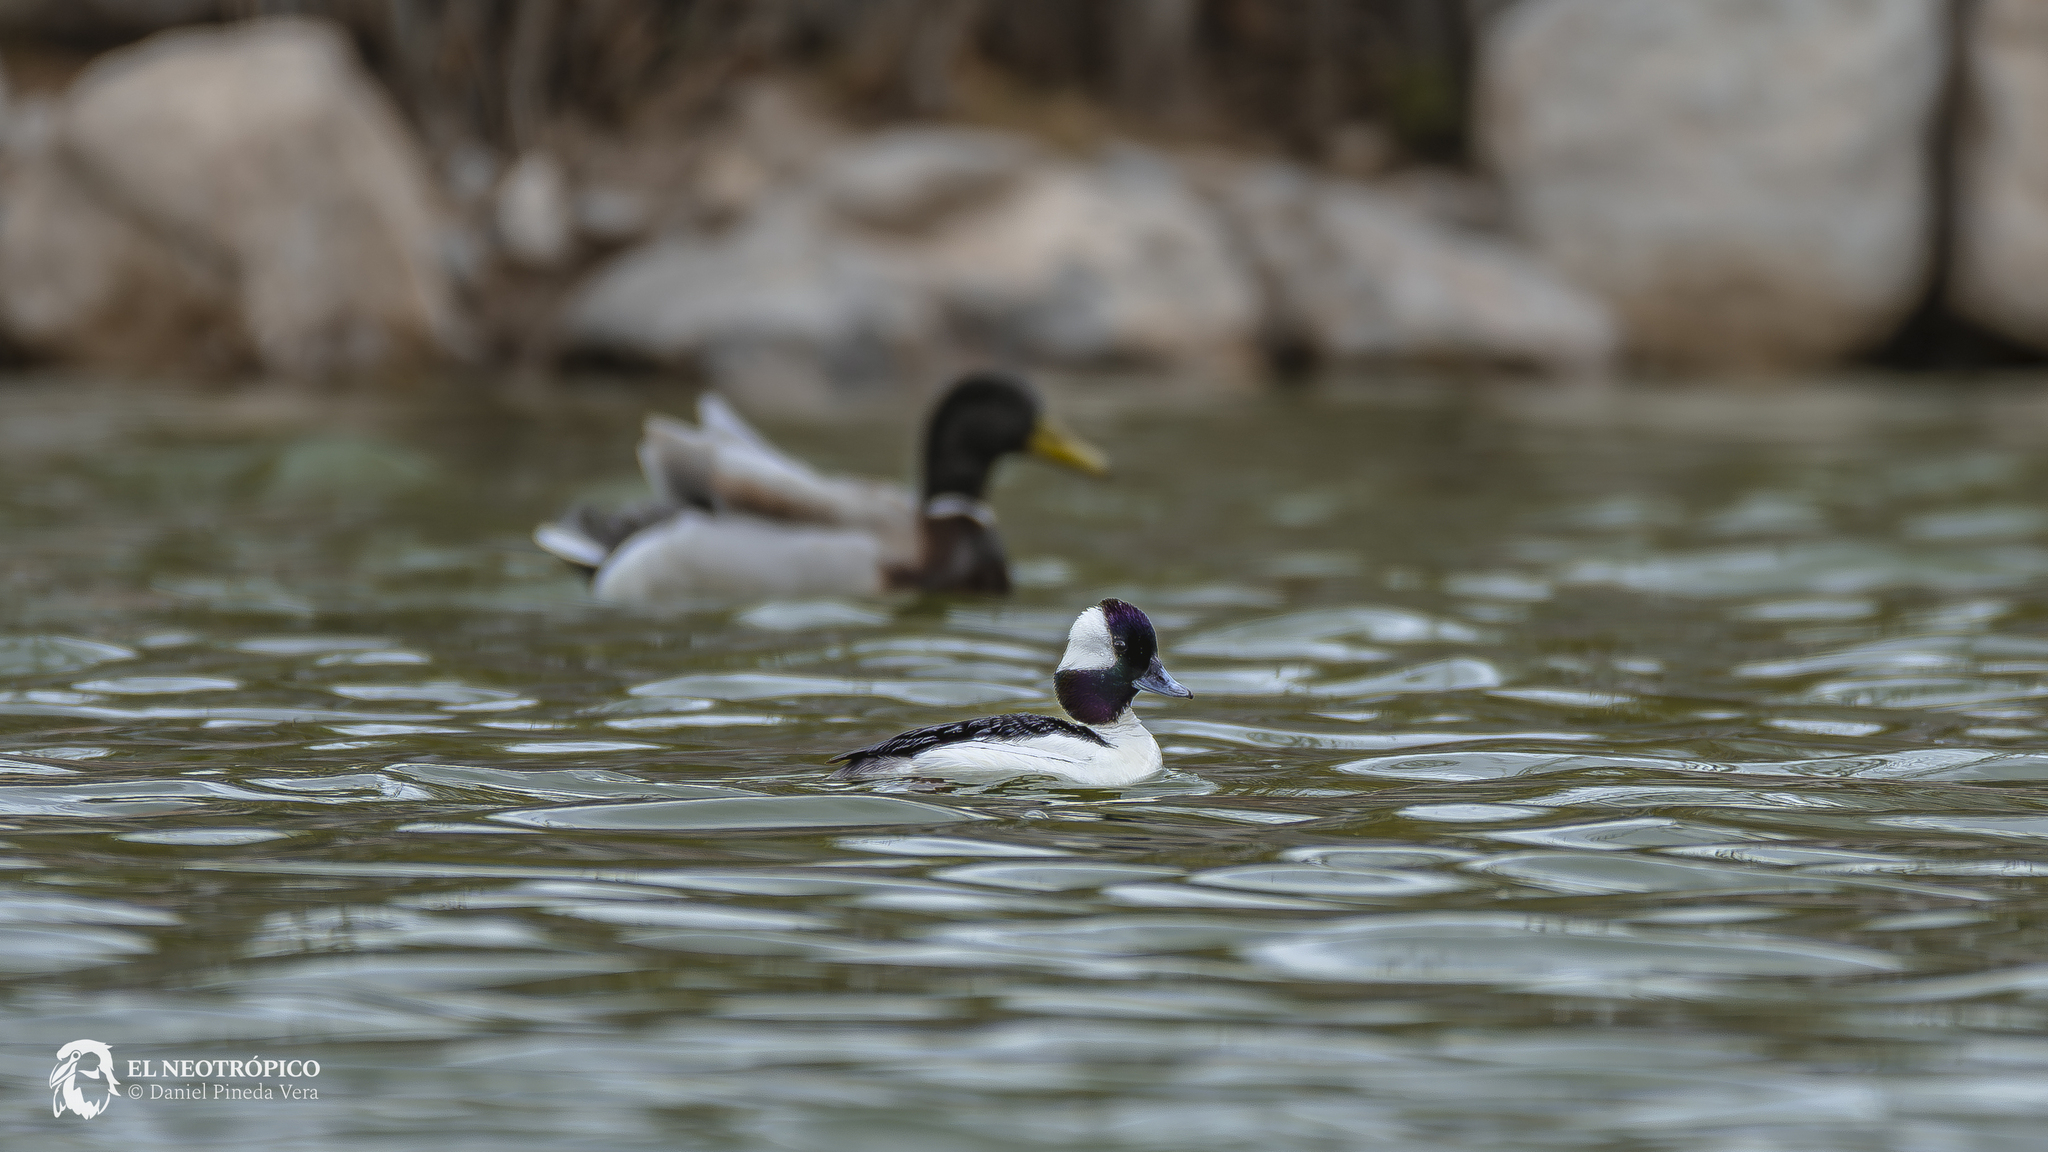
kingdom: Animalia
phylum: Chordata
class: Aves
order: Anseriformes
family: Anatidae
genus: Bucephala
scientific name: Bucephala albeola
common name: Bufflehead
